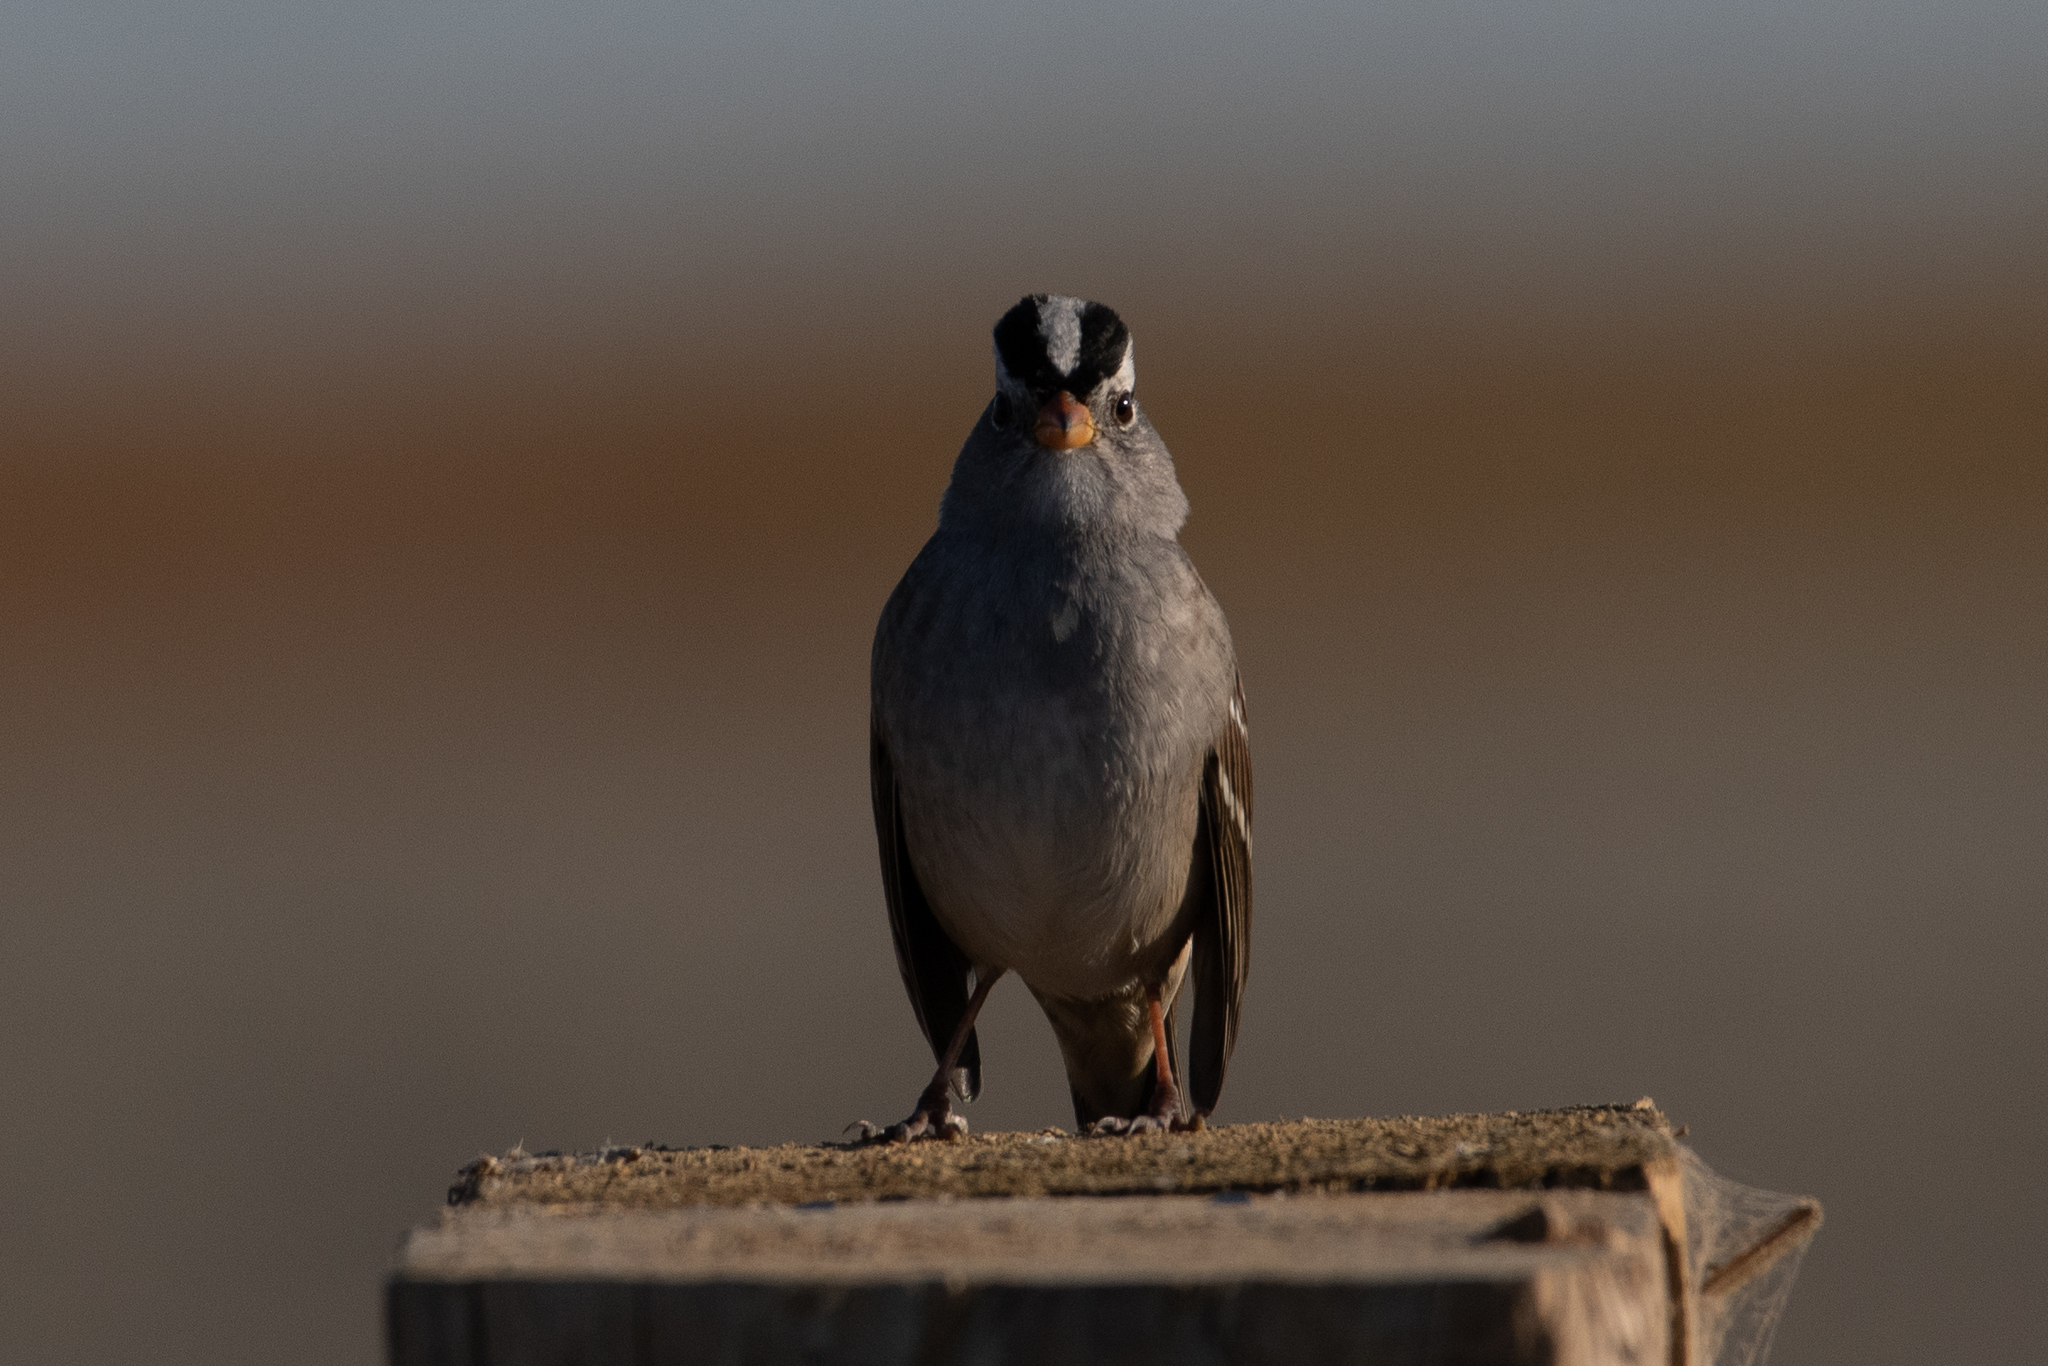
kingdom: Animalia
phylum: Chordata
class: Aves
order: Passeriformes
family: Passerellidae
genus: Zonotrichia
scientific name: Zonotrichia leucophrys
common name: White-crowned sparrow
